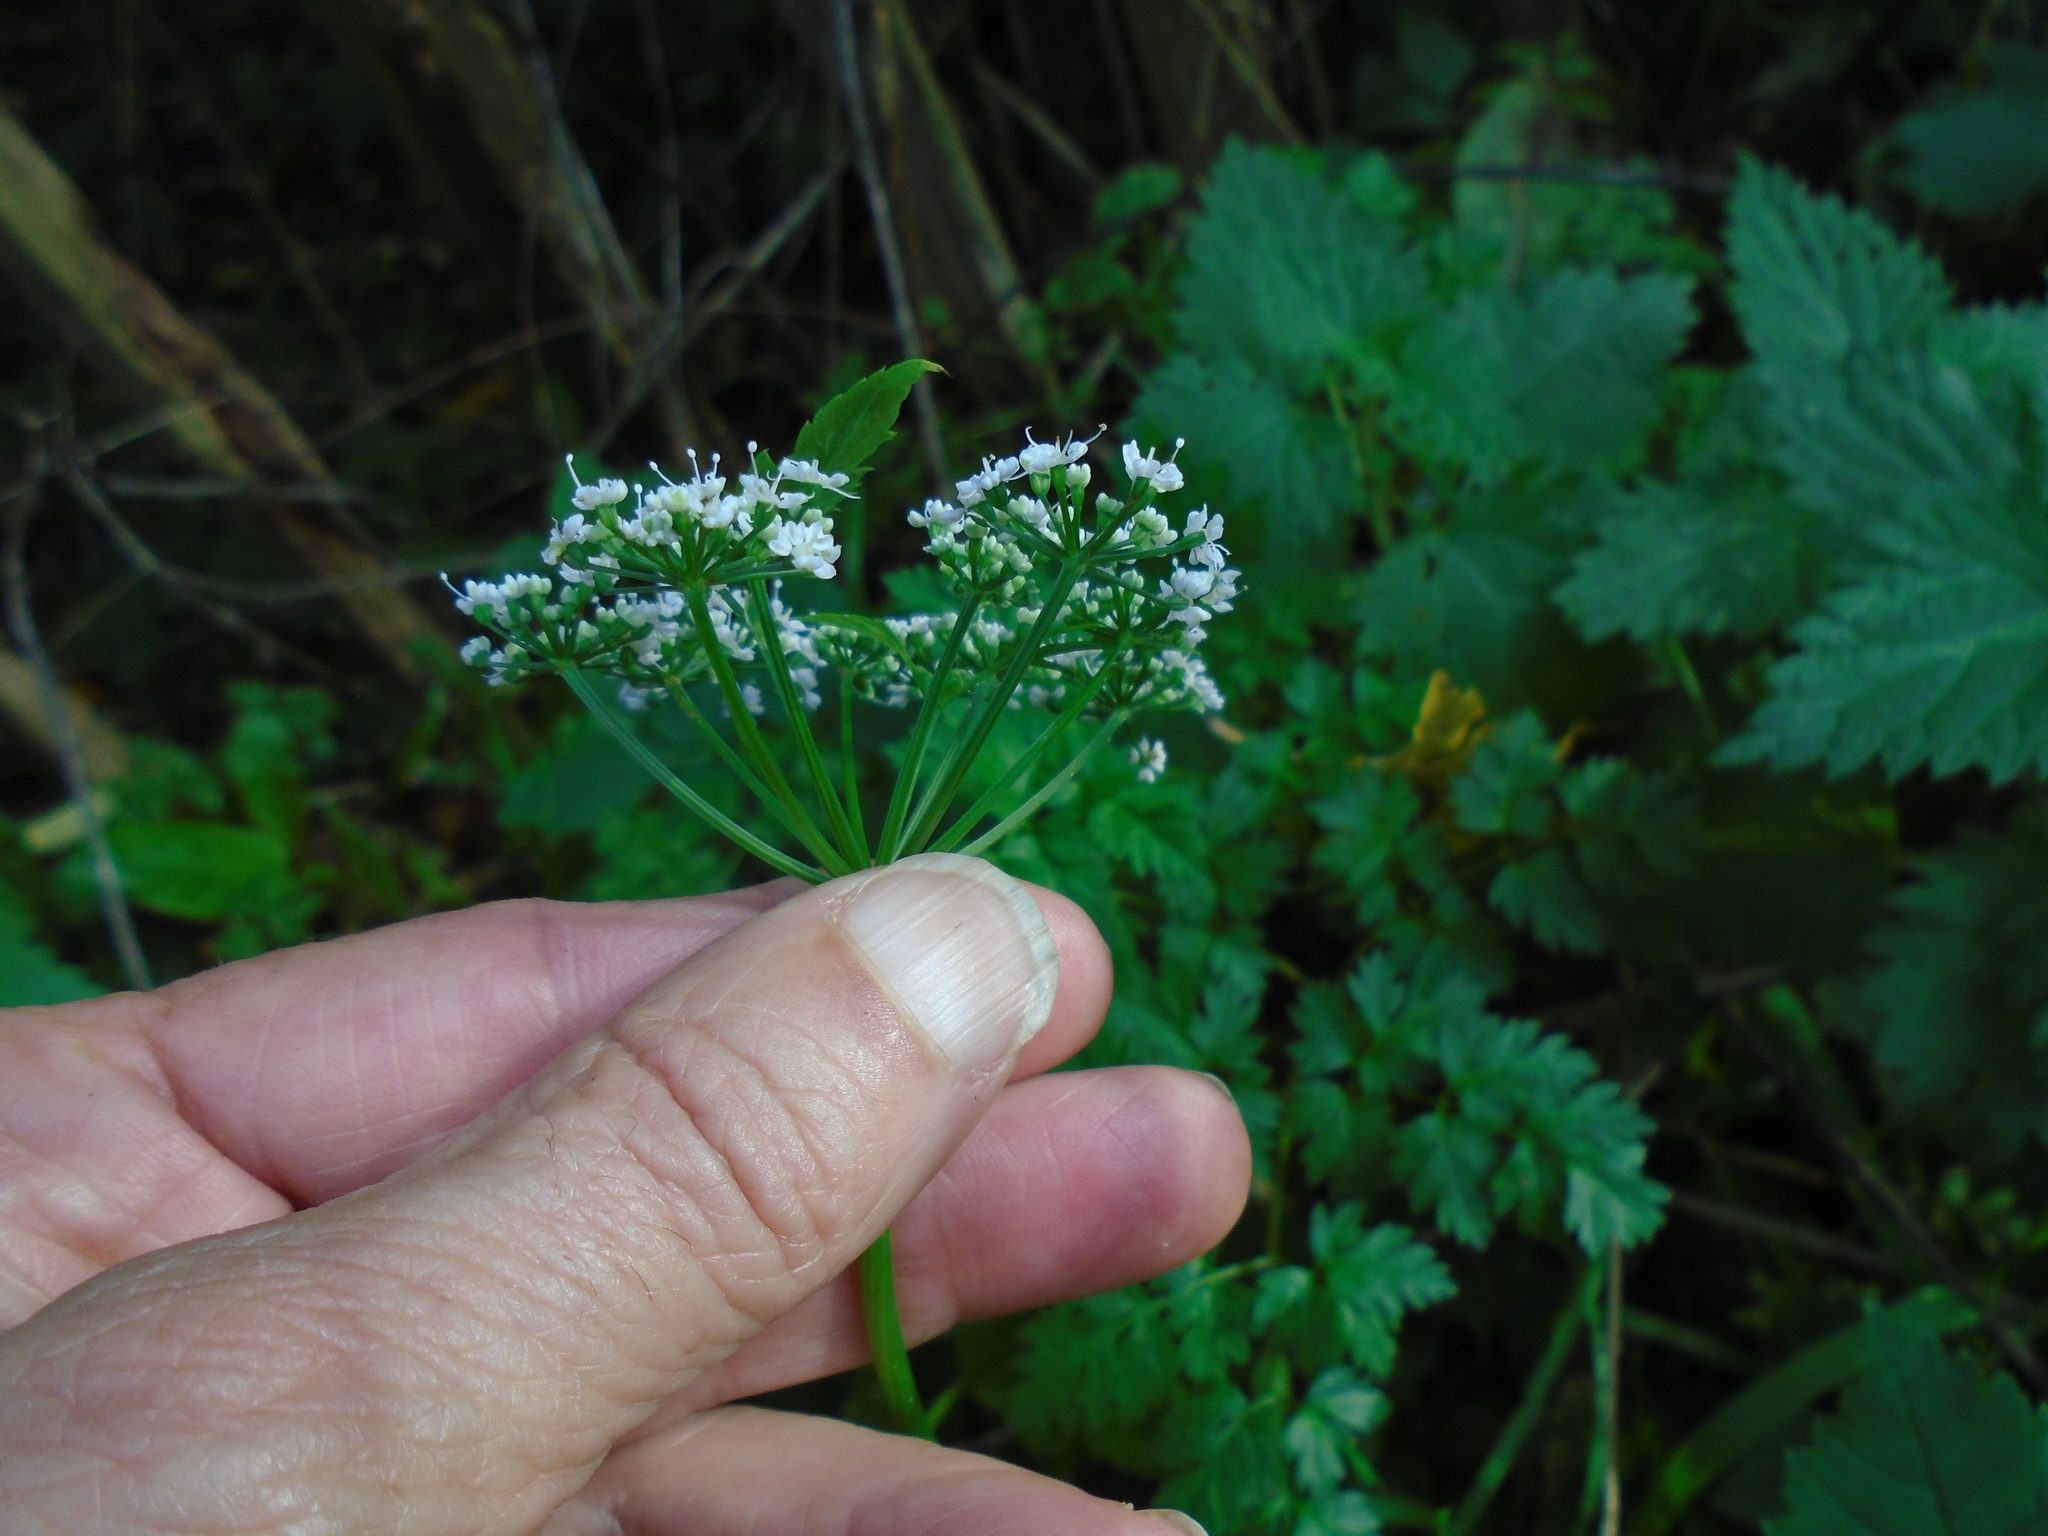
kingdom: Plantae
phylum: Tracheophyta
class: Magnoliopsida
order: Apiales
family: Apiaceae
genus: Aegopodium
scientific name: Aegopodium podagraria
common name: Ground-elder
